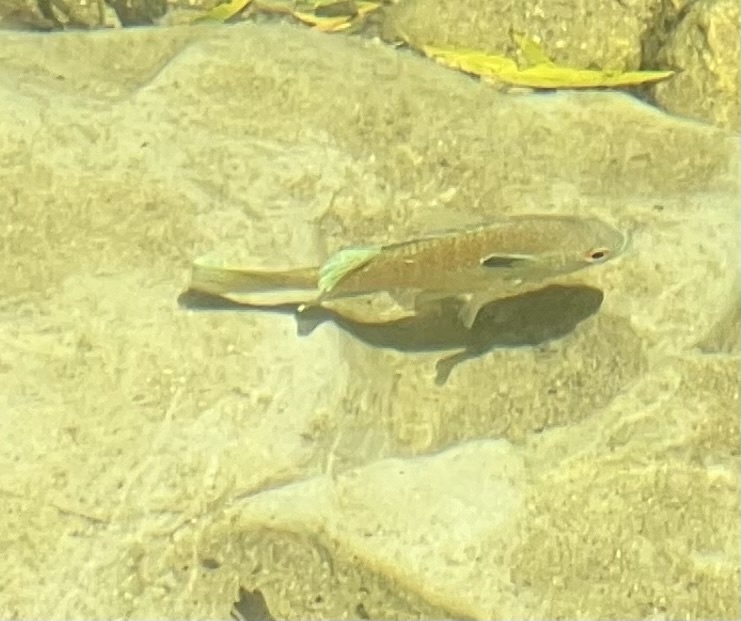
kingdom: Animalia
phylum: Chordata
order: Perciformes
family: Centrarchidae
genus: Lepomis
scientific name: Lepomis aquilensis
